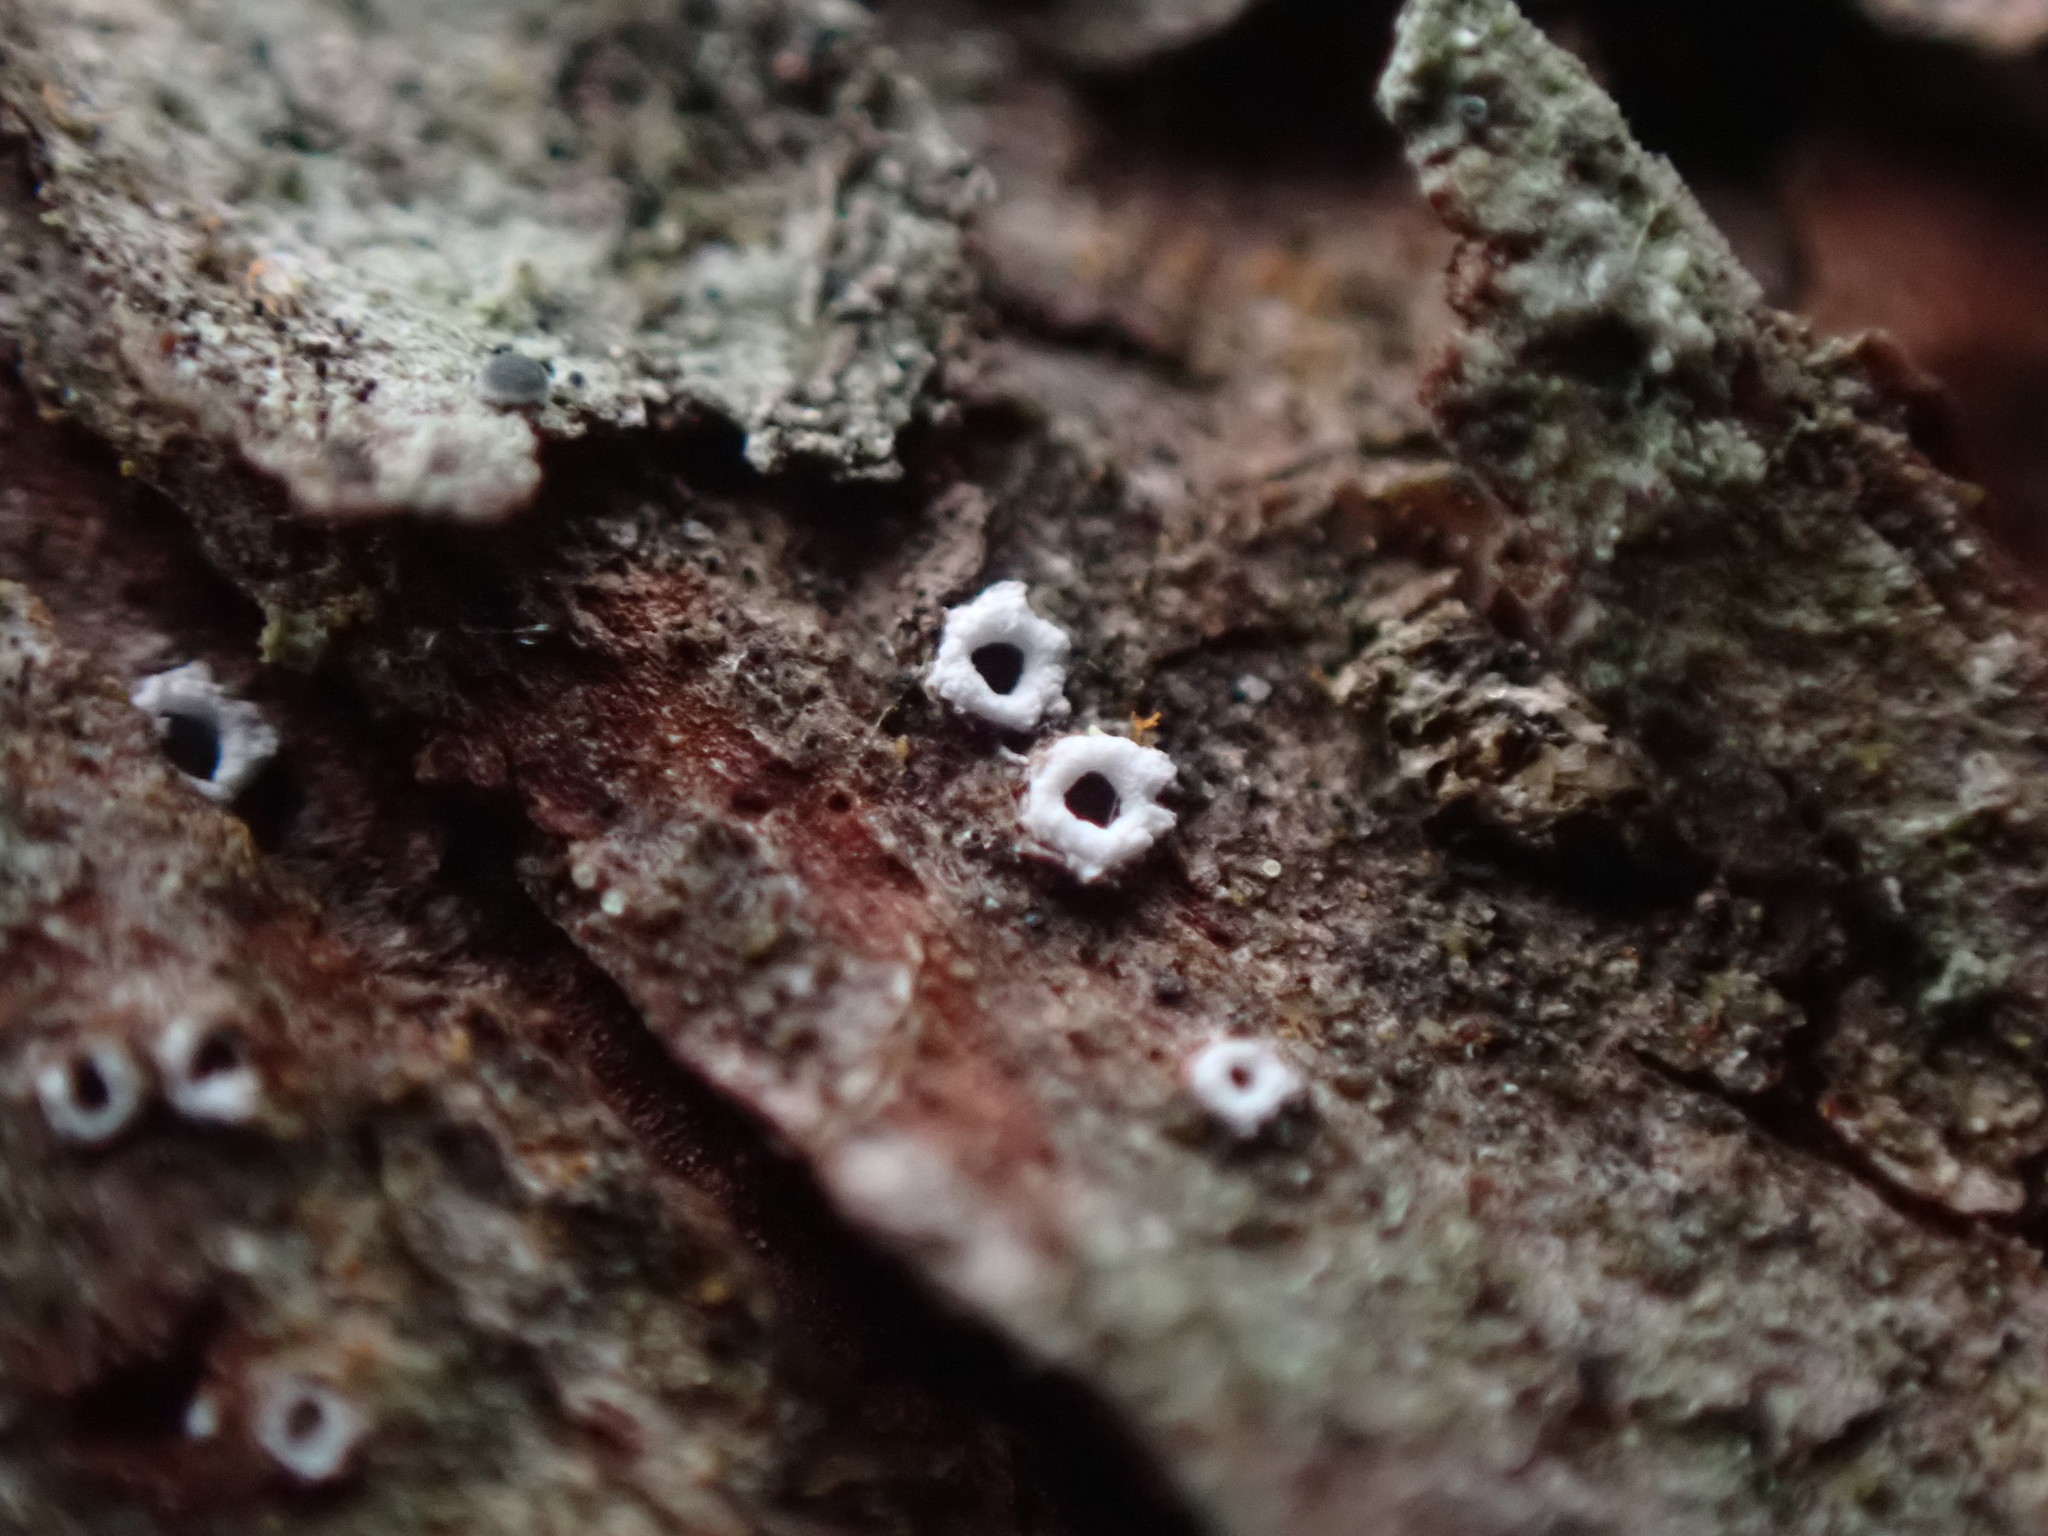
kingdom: Fungi
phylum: Ascomycota
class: Lecanoromycetes
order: Ostropales
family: Stictidaceae
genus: Stictis
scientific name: Stictis radiata
